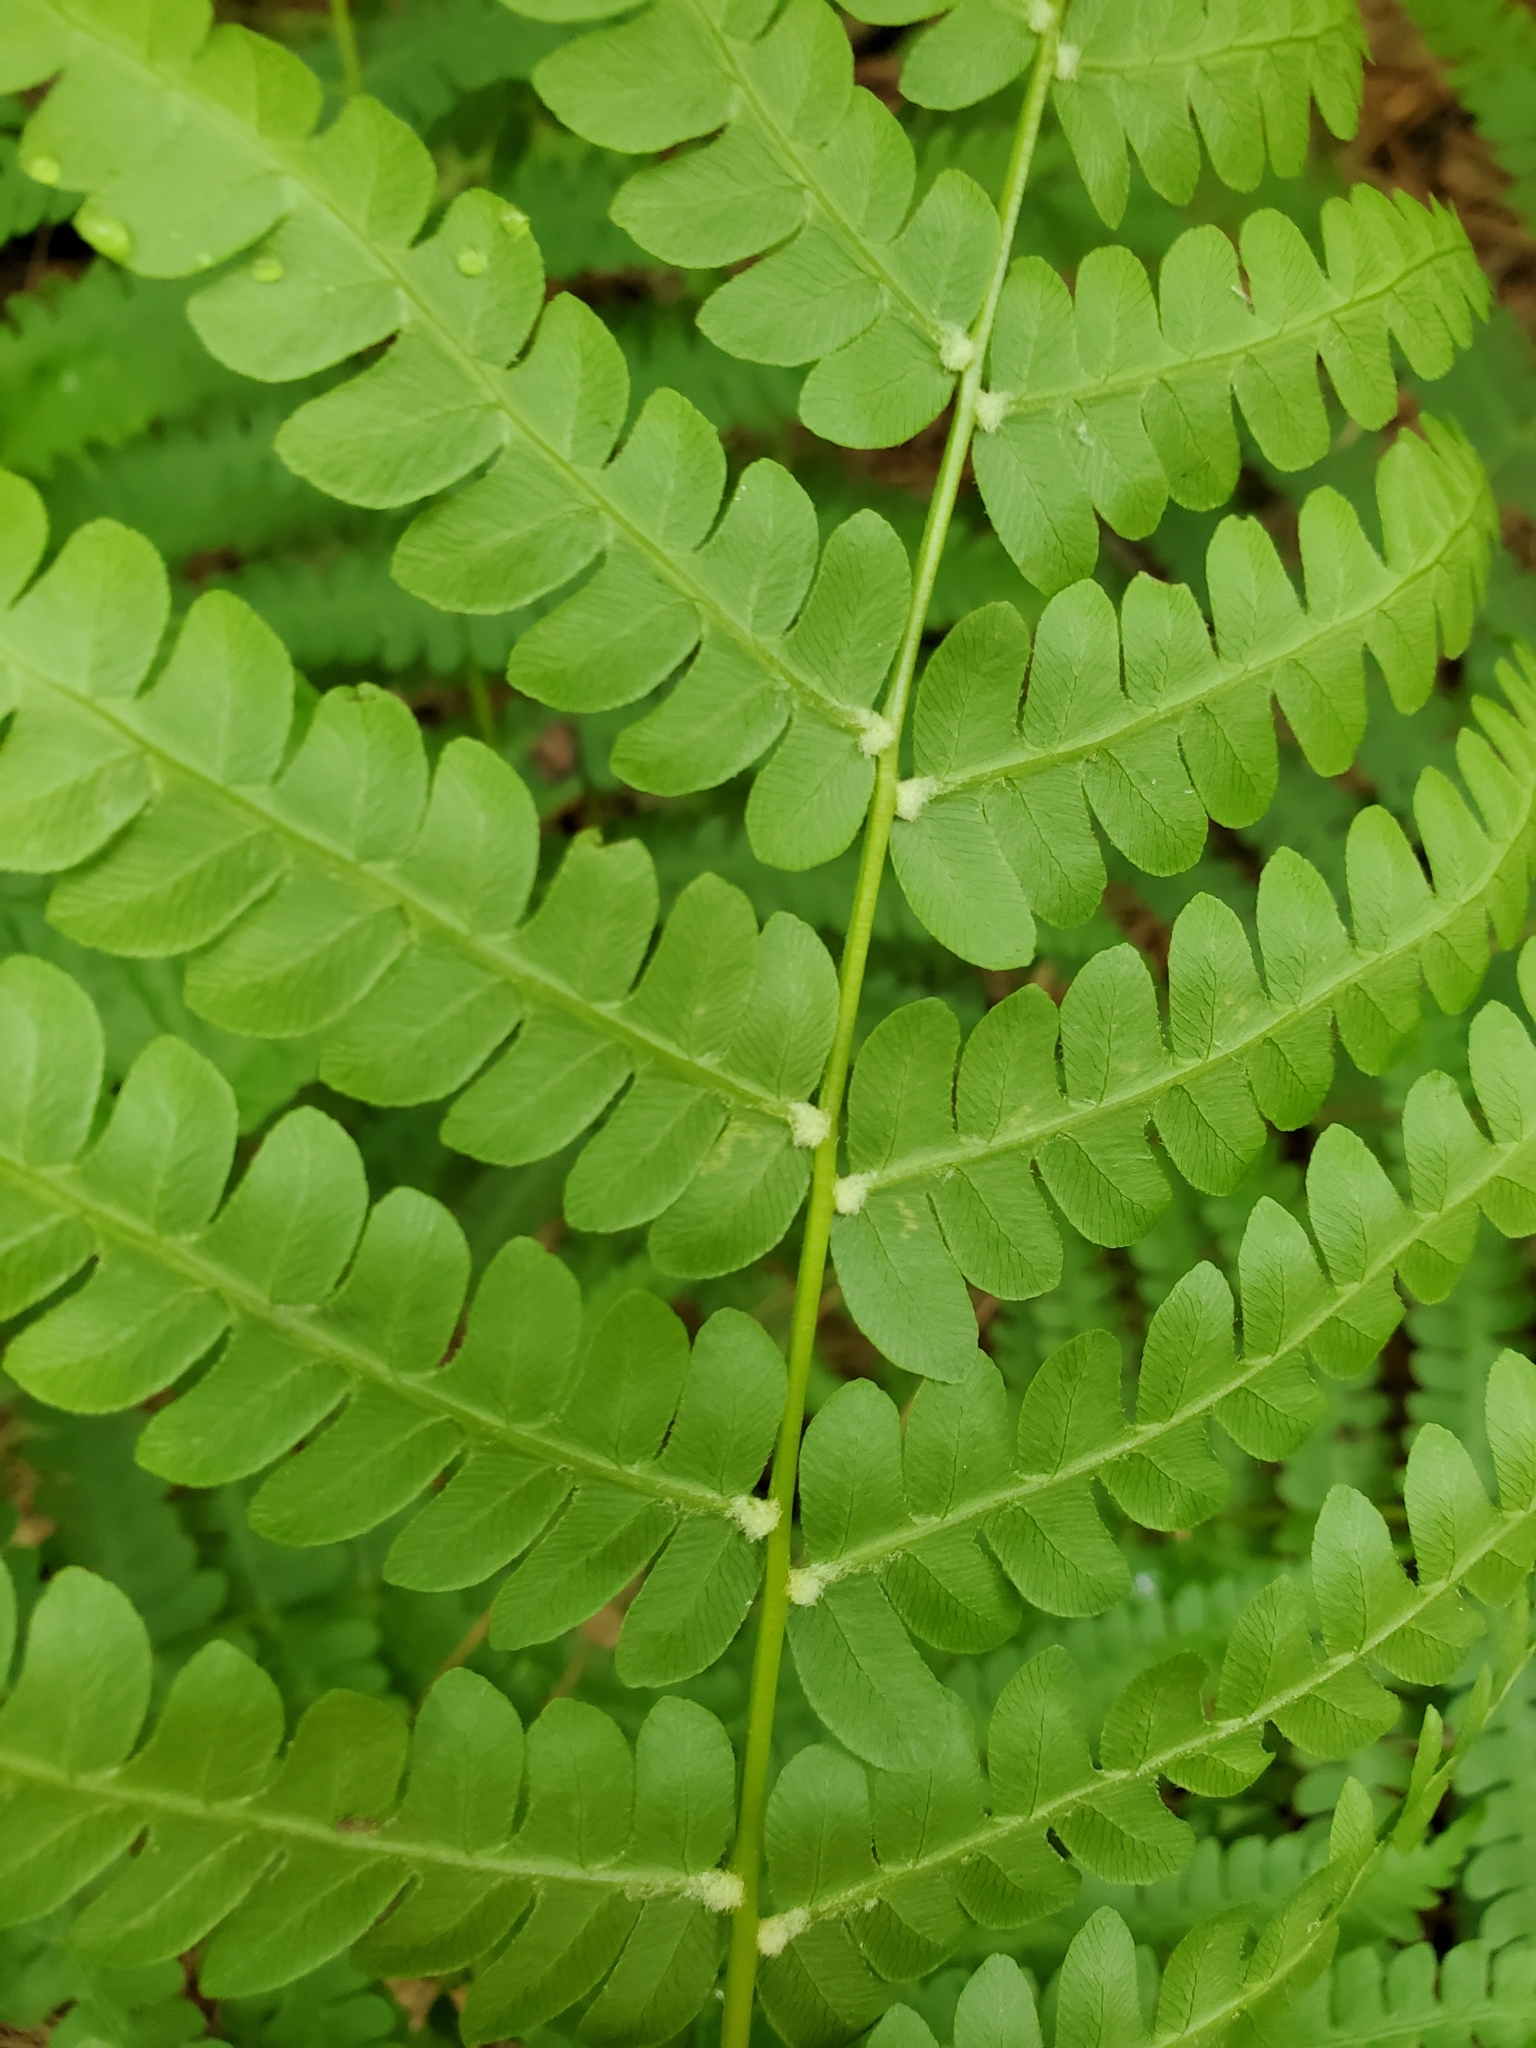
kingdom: Plantae
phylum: Tracheophyta
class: Polypodiopsida
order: Osmundales
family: Osmundaceae
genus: Osmundastrum
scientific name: Osmundastrum cinnamomeum
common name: Cinnamon fern
